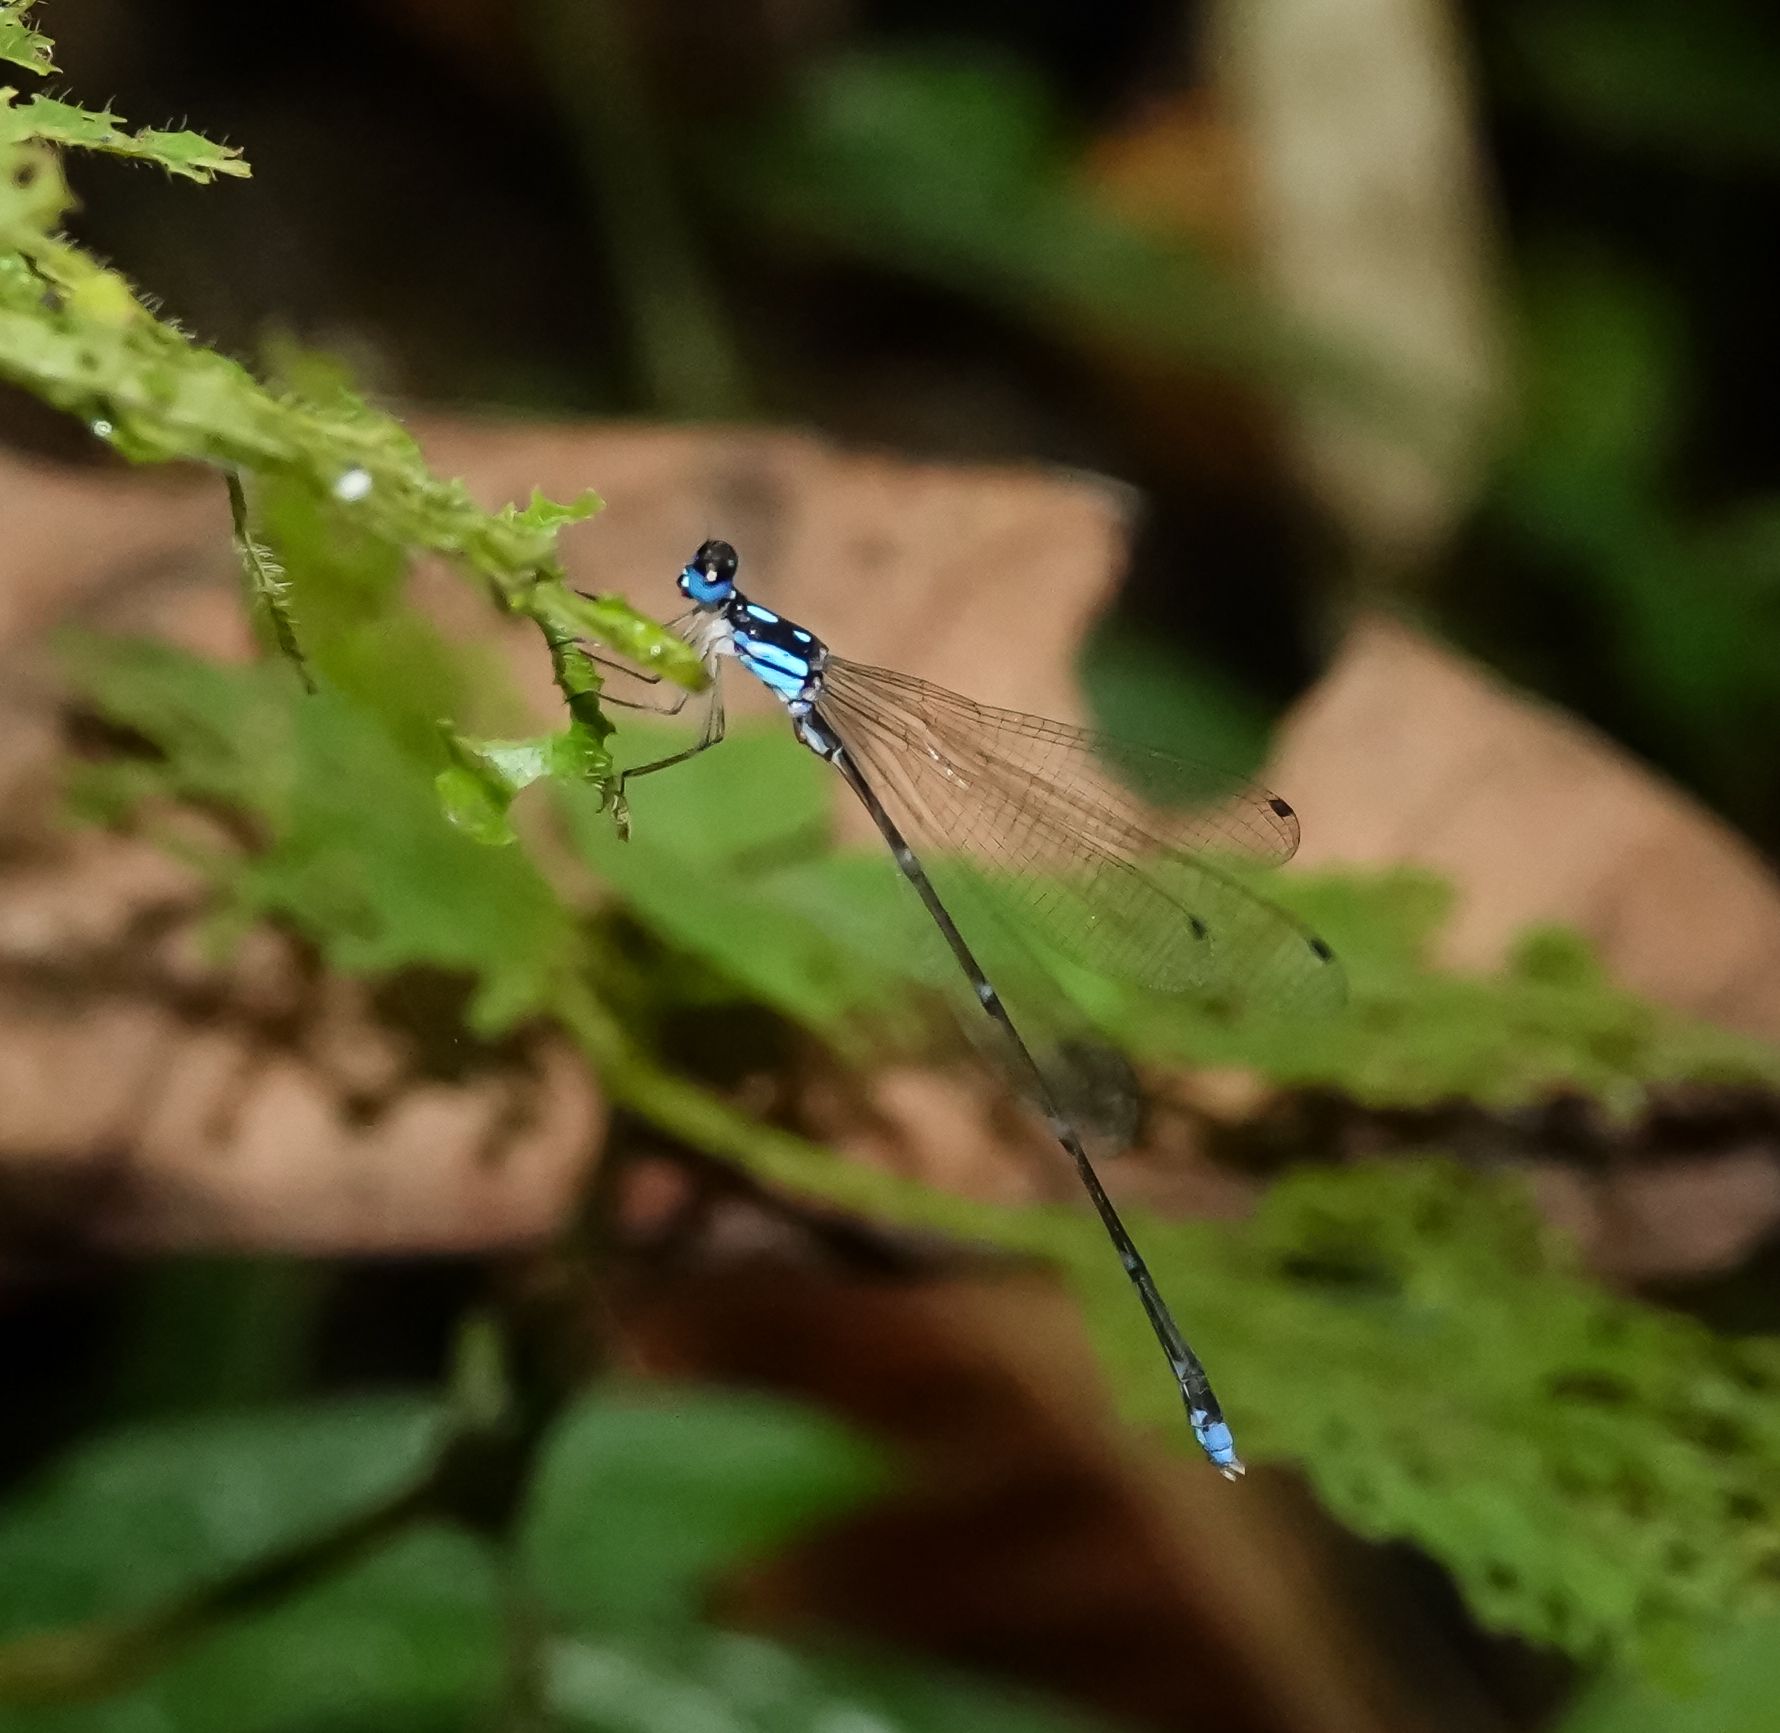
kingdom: Animalia
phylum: Arthropoda
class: Insecta
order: Odonata
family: Platycnemididae
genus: Coeliccia
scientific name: Coeliccia didyma
